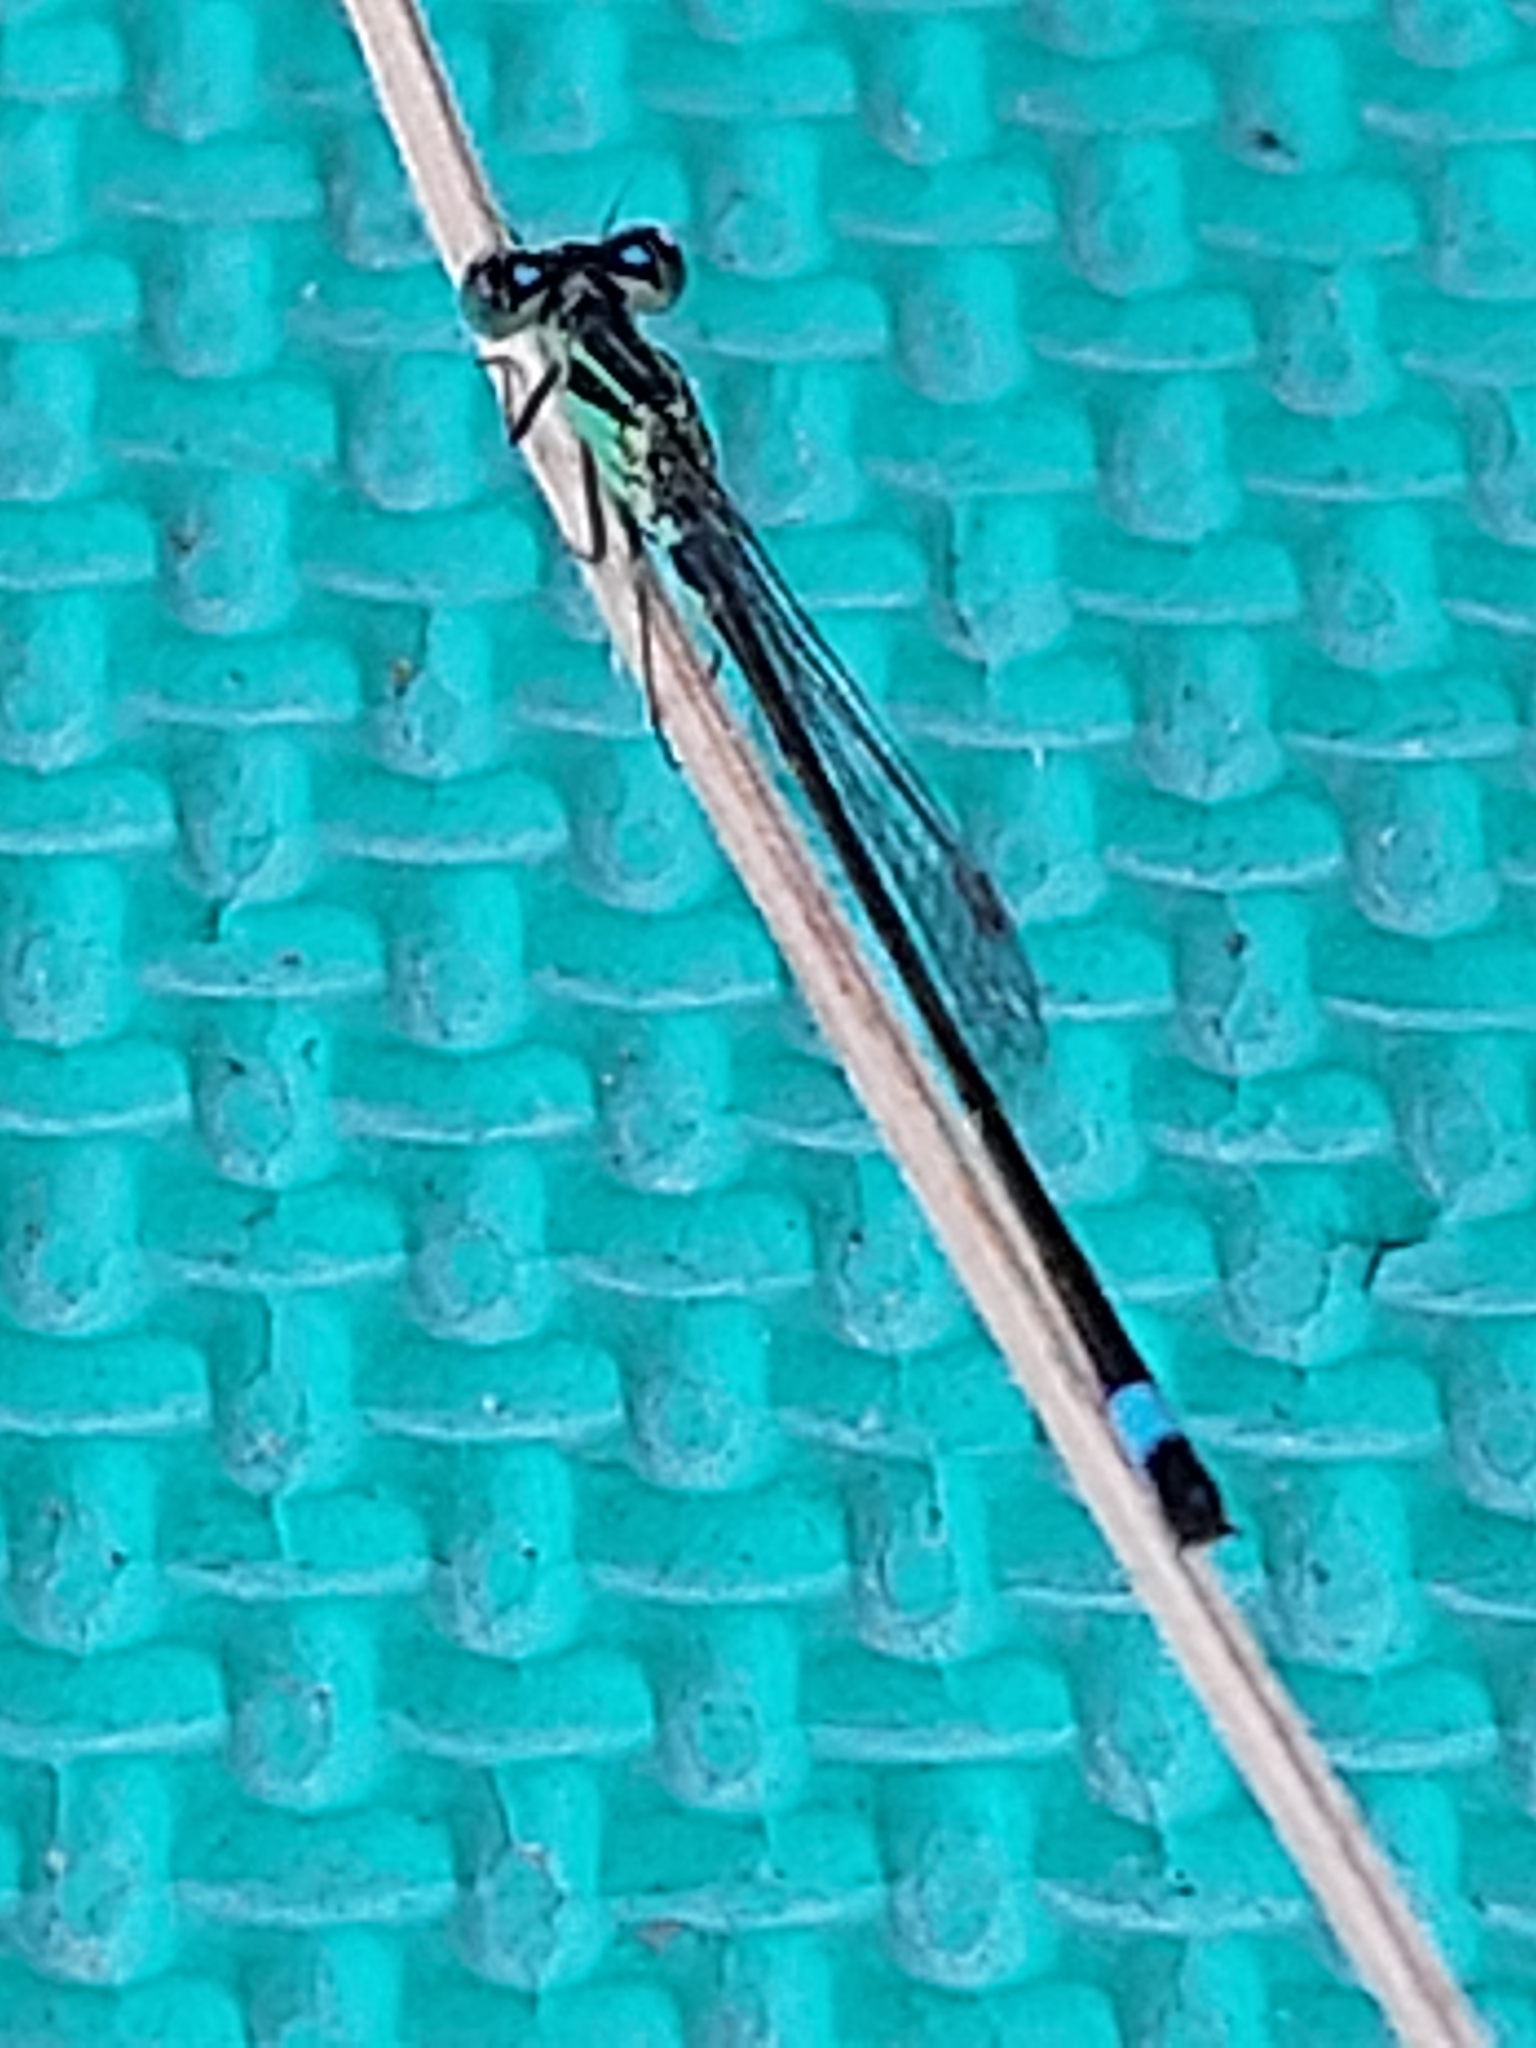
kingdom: Animalia
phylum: Arthropoda
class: Insecta
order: Odonata
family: Coenagrionidae
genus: Ischnura
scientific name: Ischnura elegans
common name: Blue-tailed damselfly
